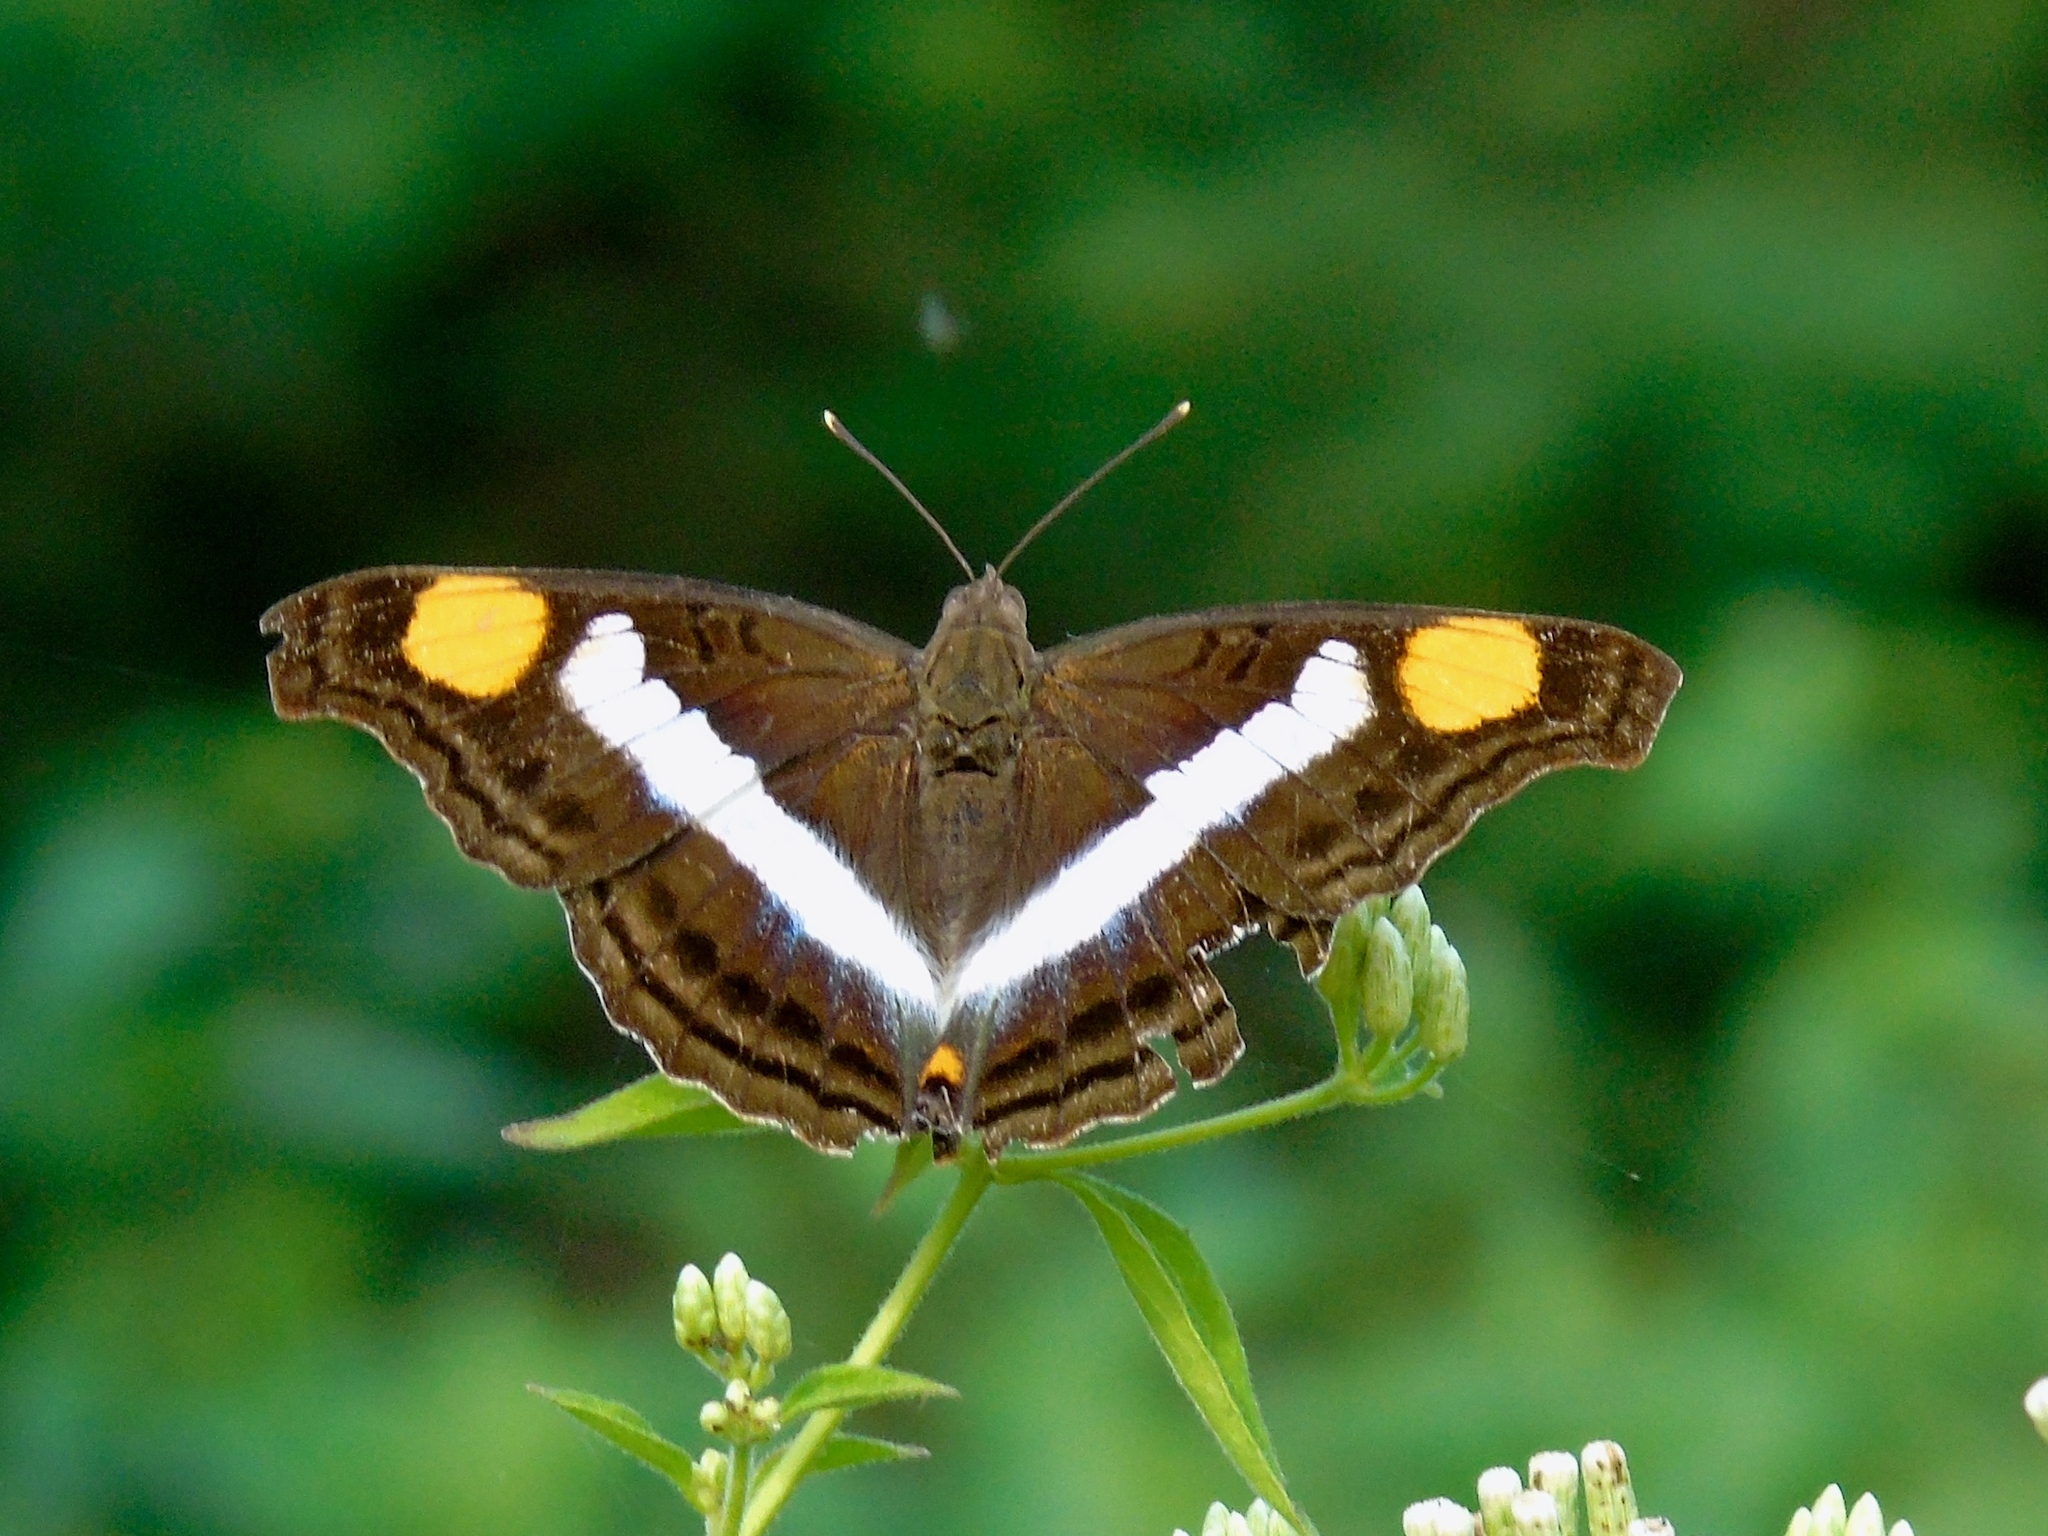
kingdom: Animalia
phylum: Arthropoda
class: Insecta
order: Lepidoptera
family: Nymphalidae
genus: Doxocopa
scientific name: Doxocopa laure
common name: Silver emperor
